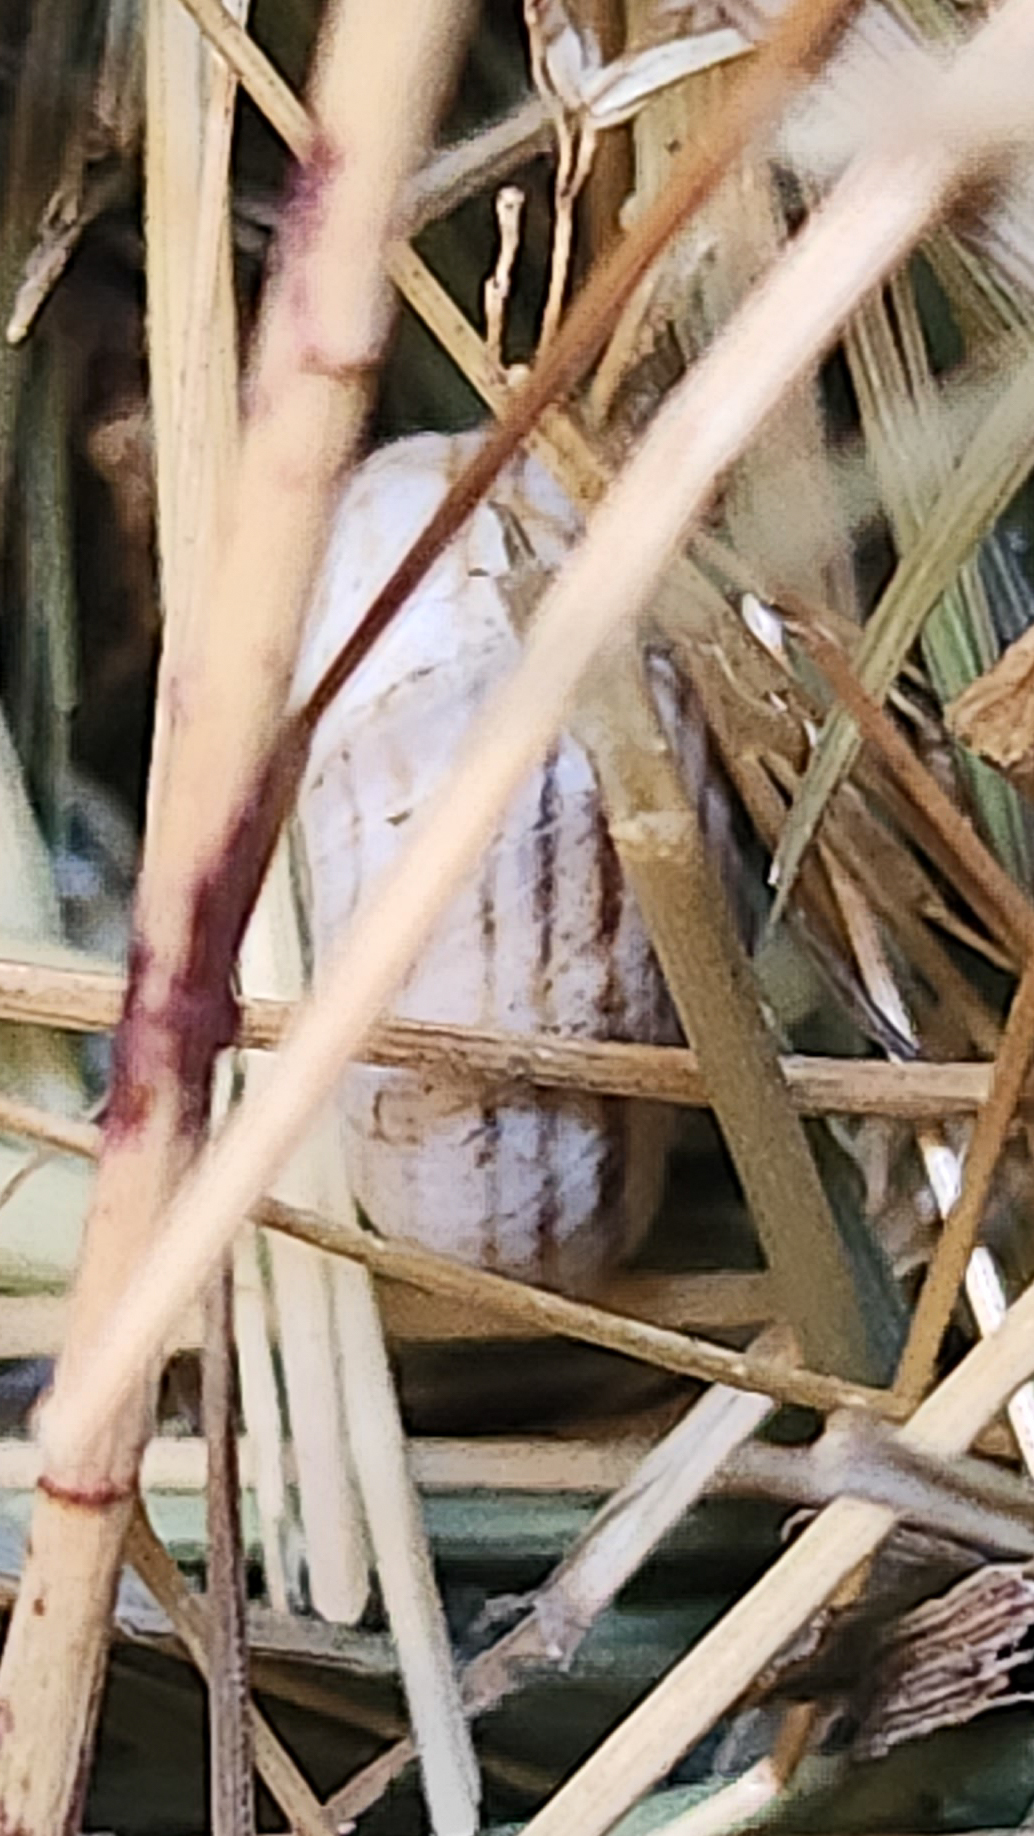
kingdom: Animalia
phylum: Mollusca
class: Gastropoda
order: Stylommatophora
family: Geomitridae
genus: Xerolenta
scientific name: Xerolenta obvia
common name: White heath snail
